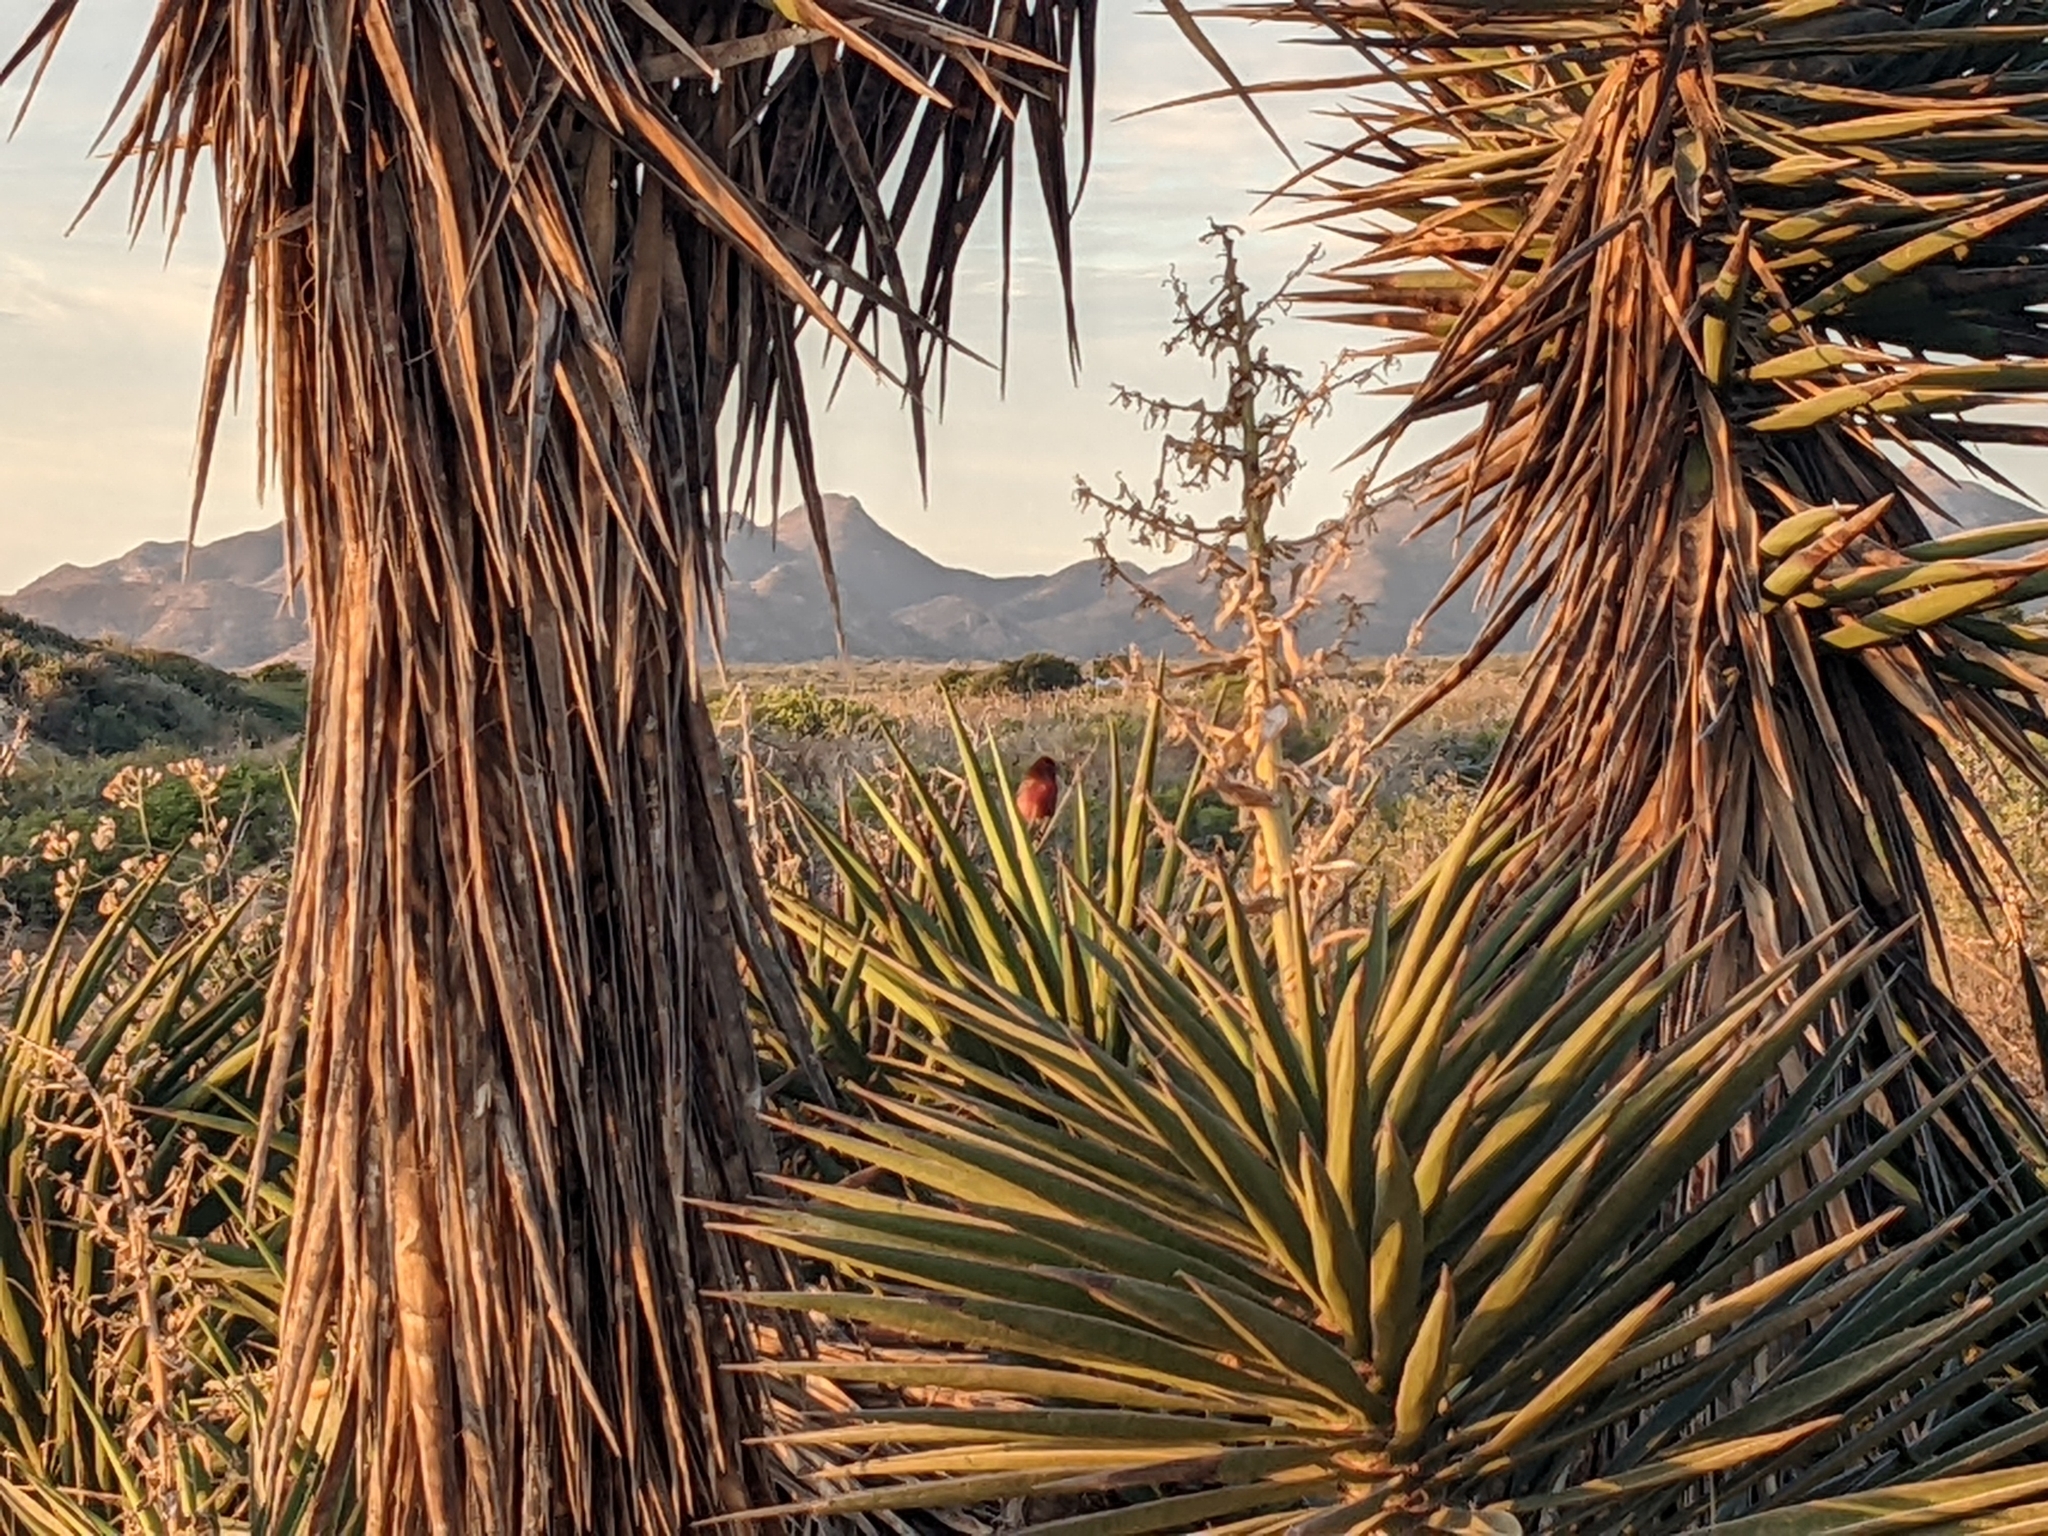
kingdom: Animalia
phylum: Chordata
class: Aves
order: Passeriformes
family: Fringillidae
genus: Haemorhous
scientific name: Haemorhous mexicanus
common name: House finch
